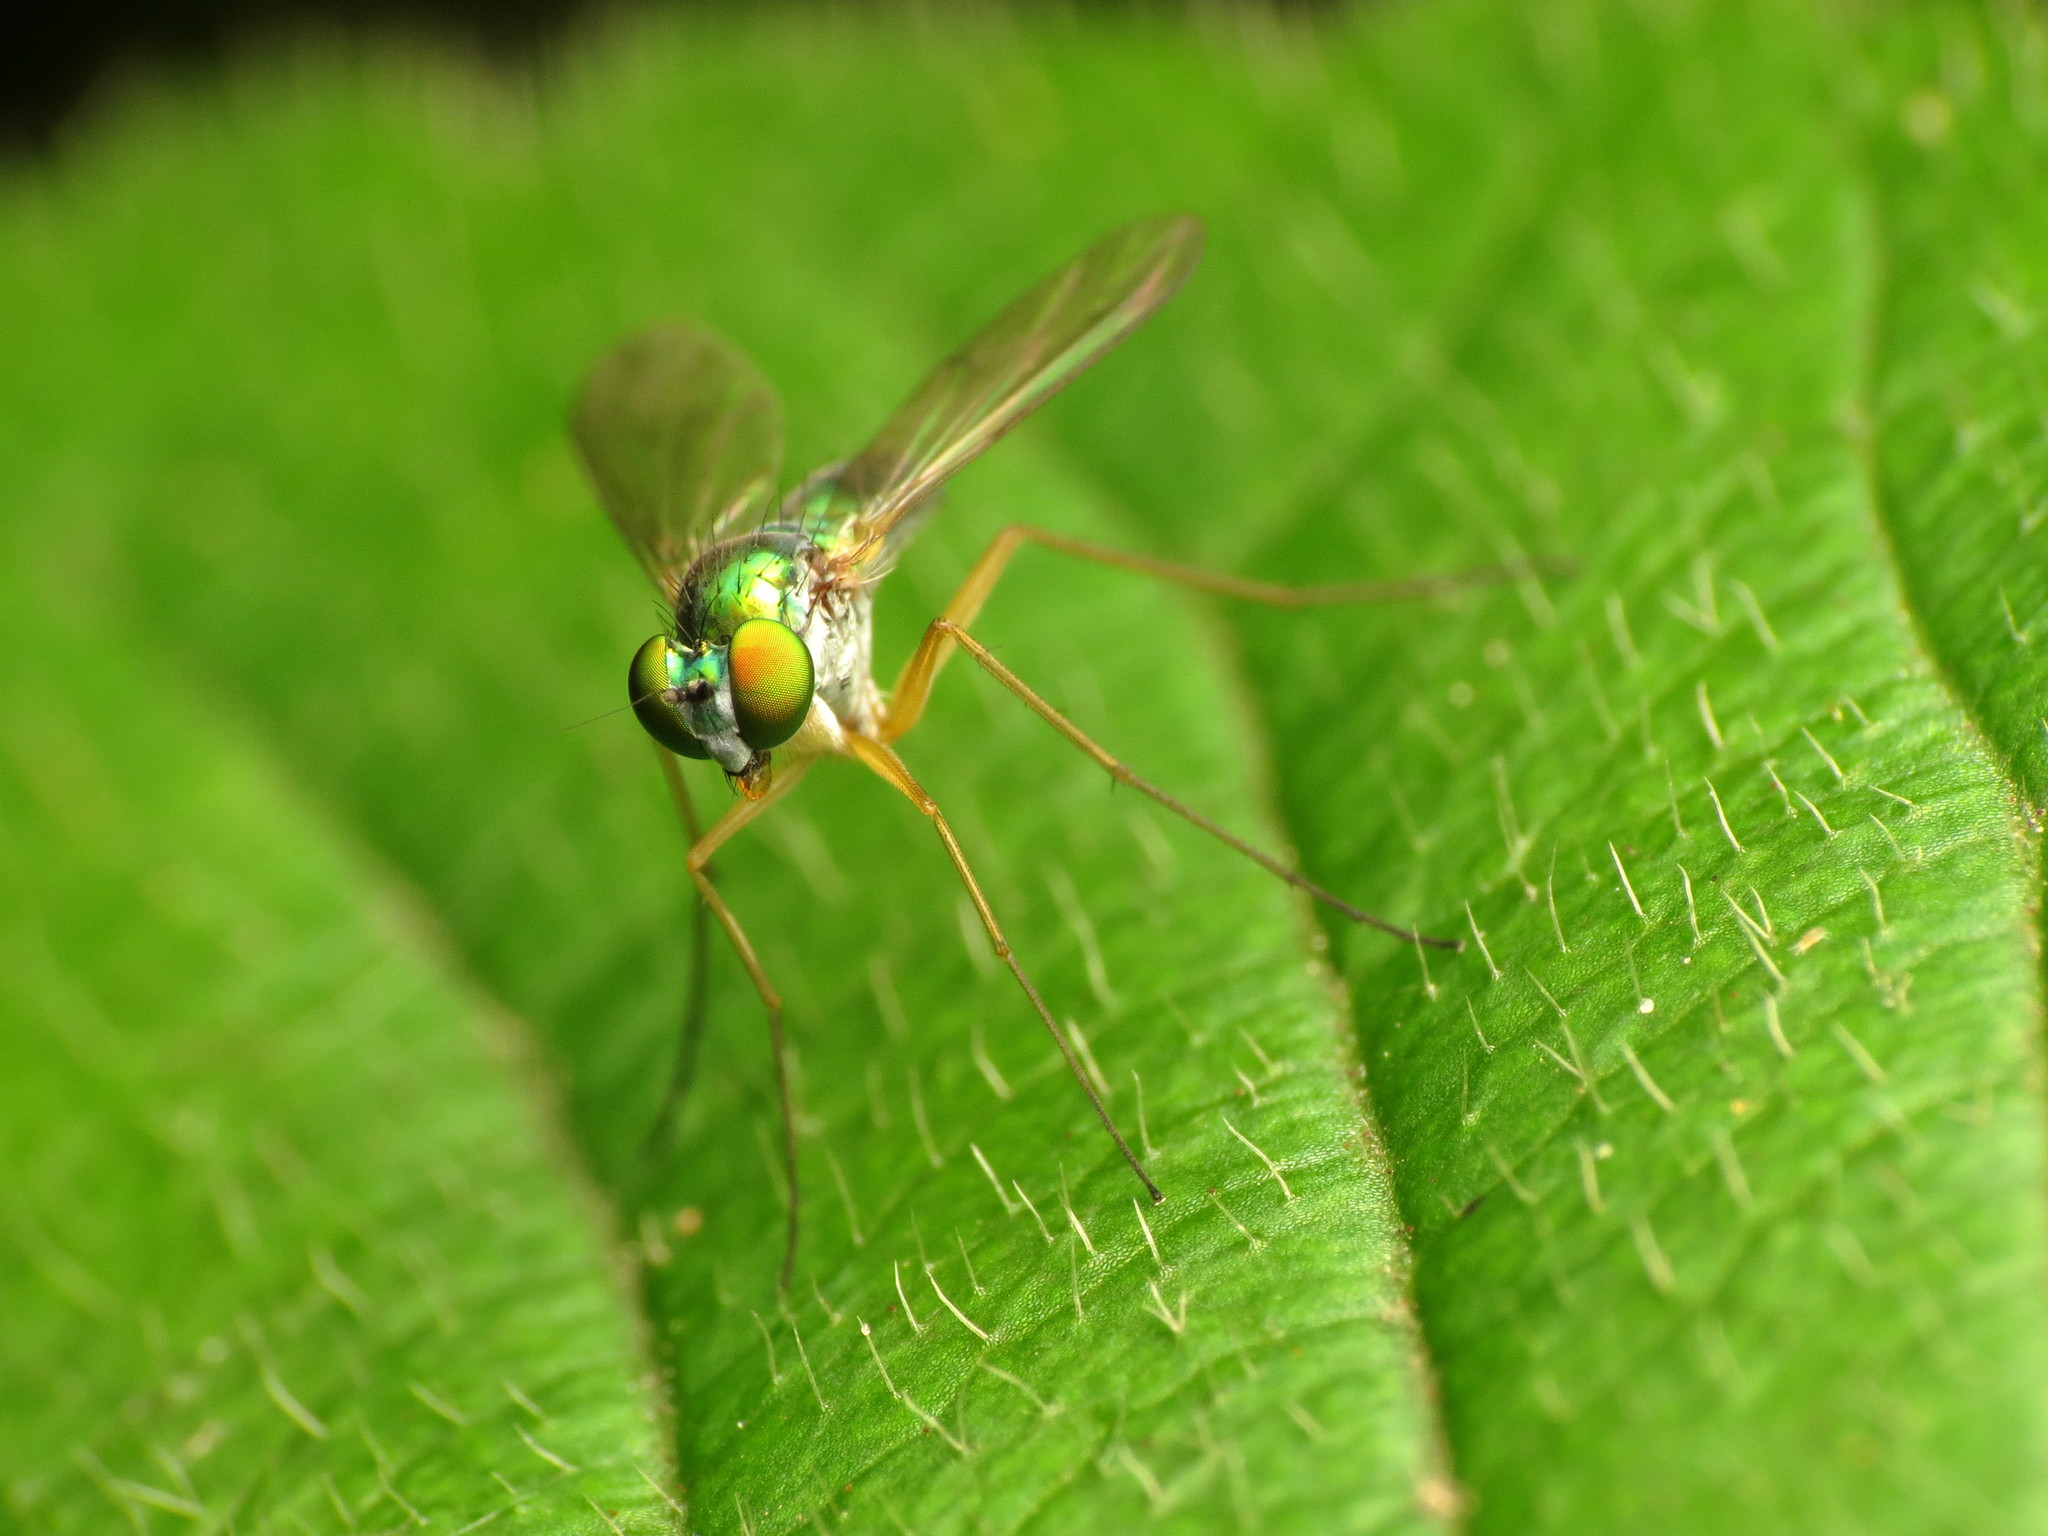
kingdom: Animalia
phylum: Arthropoda
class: Insecta
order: Diptera
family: Dolichopodidae
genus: Amblypsilopus
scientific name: Amblypsilopus scintillans
